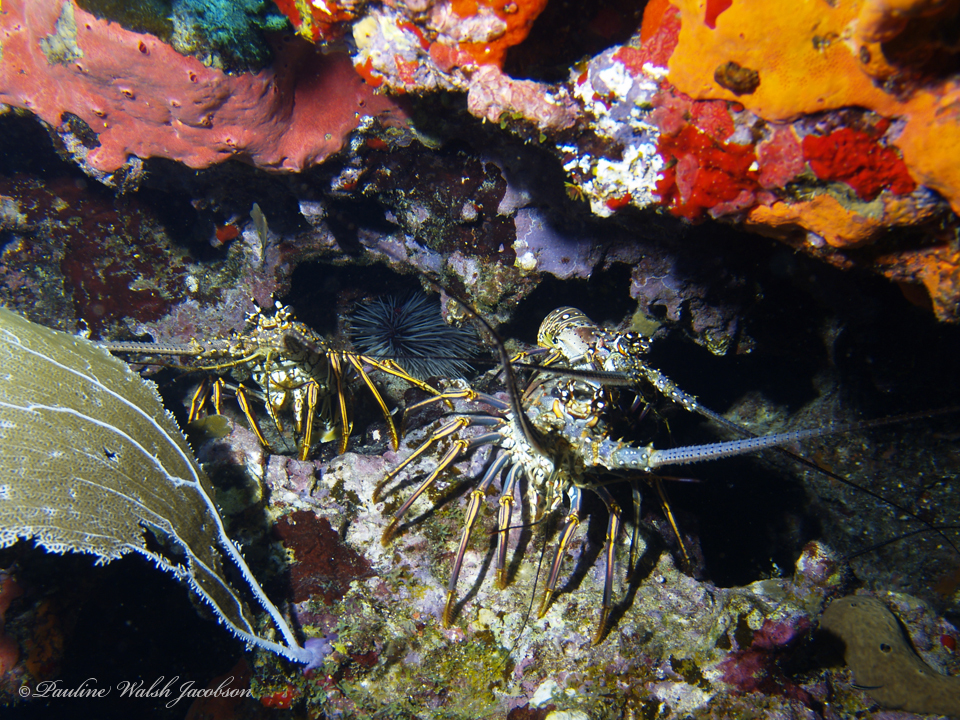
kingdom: Animalia
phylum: Arthropoda
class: Malacostraca
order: Decapoda
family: Palinuridae
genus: Panulirus
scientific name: Panulirus argus
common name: Caribbean spiny lobster
